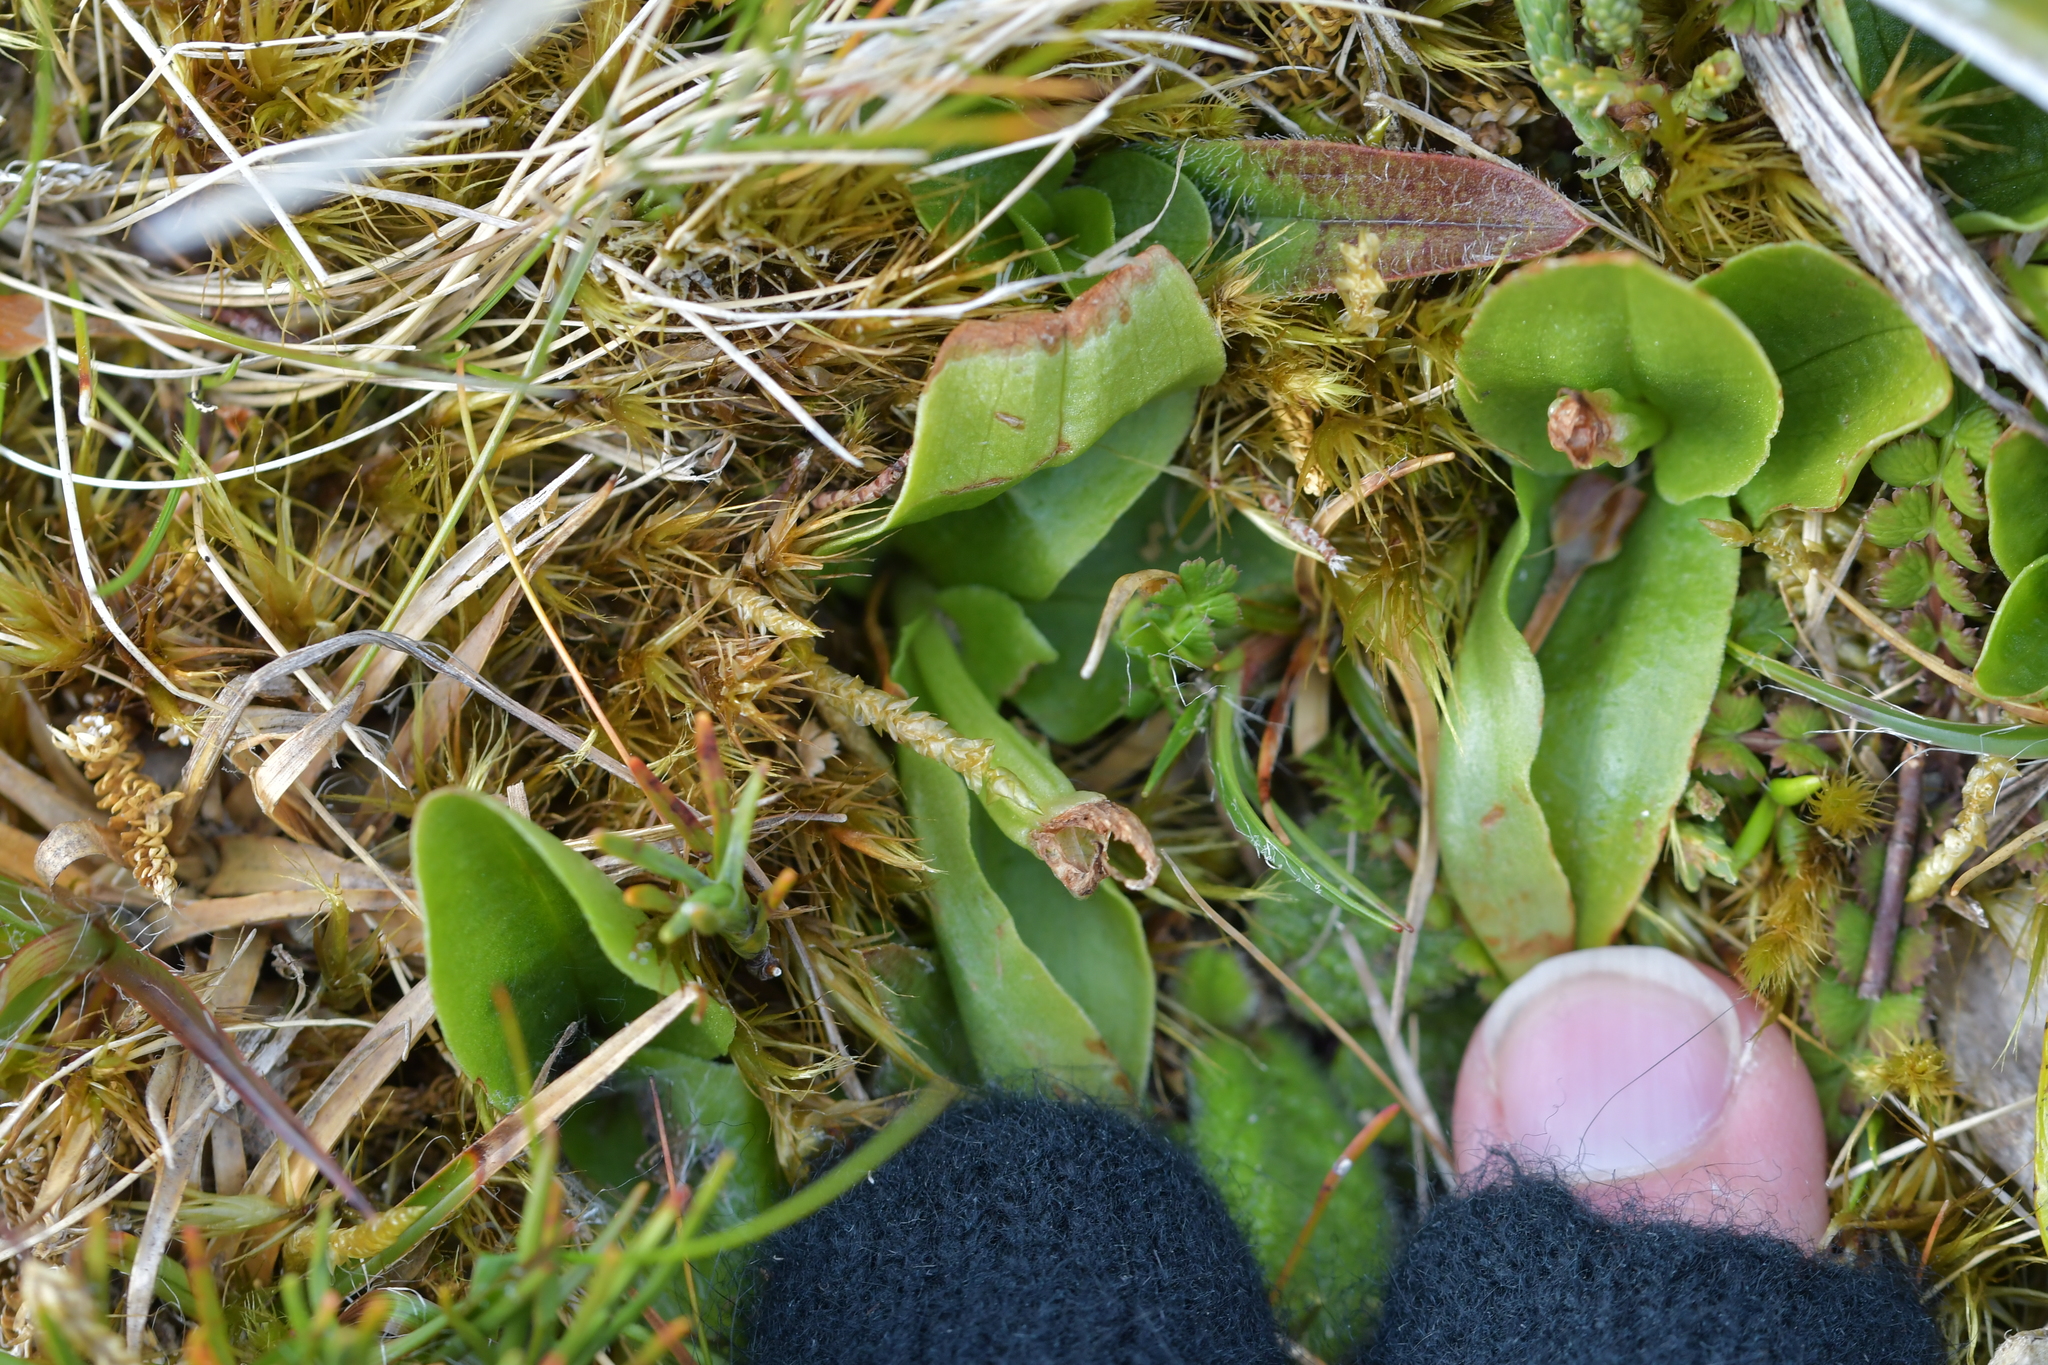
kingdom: Plantae
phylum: Tracheophyta
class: Liliopsida
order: Asparagales
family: Orchidaceae
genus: Pterostylis
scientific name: Pterostylis venosa
